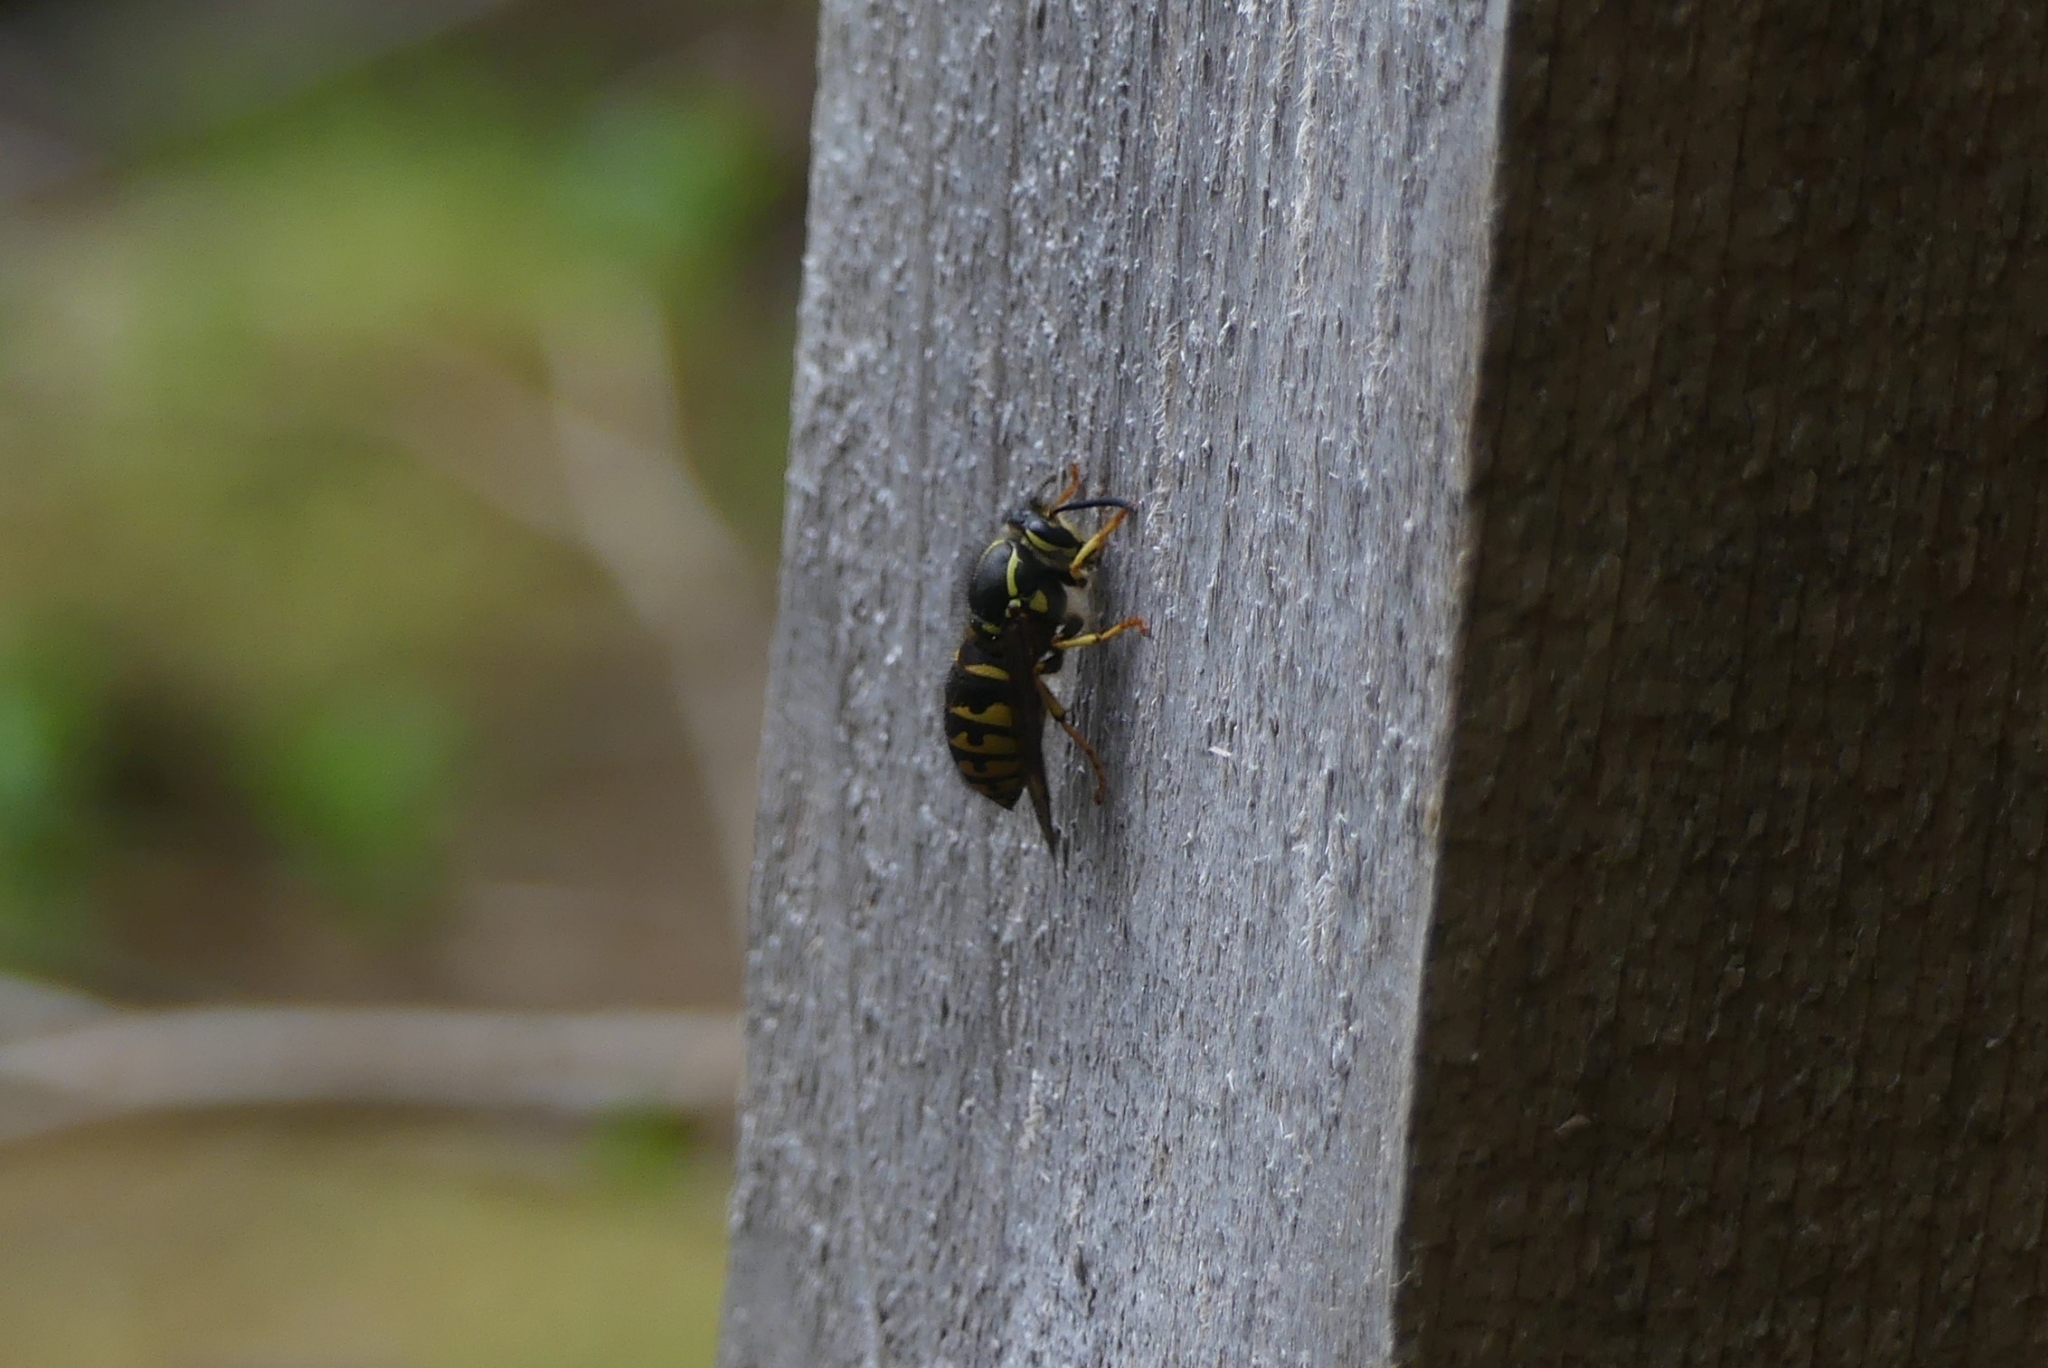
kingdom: Animalia
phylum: Arthropoda
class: Insecta
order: Hymenoptera
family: Vespidae
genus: Dolichovespula
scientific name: Dolichovespula arenaria
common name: Aerial yellowjacket
